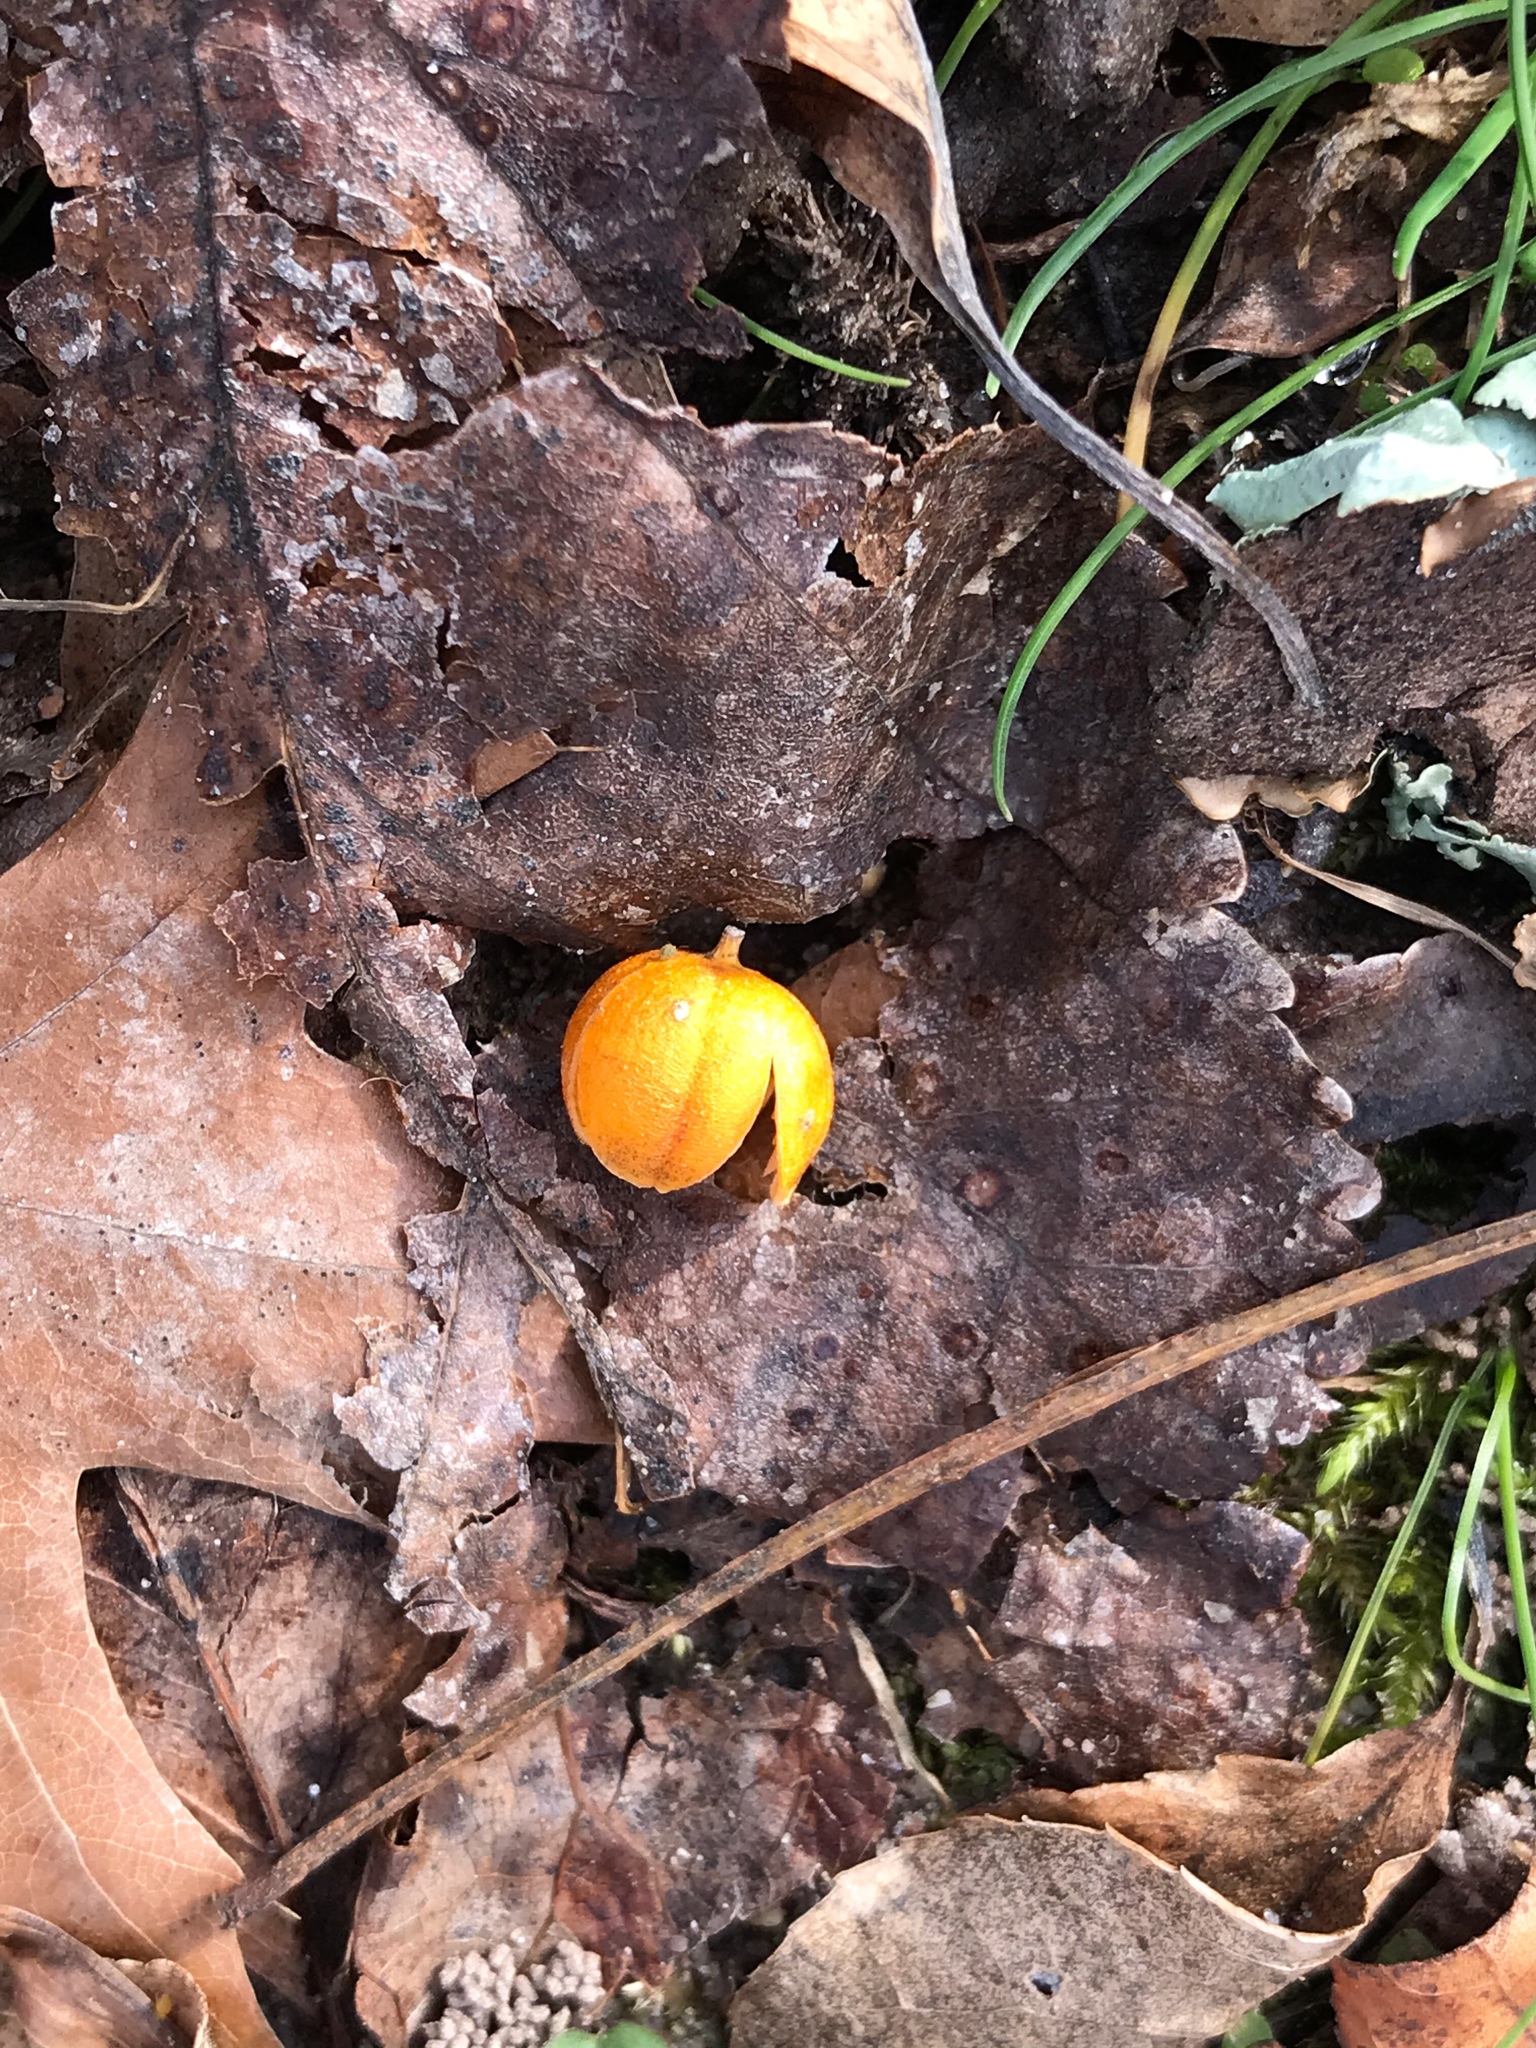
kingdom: Plantae
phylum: Tracheophyta
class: Magnoliopsida
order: Celastrales
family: Celastraceae
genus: Celastrus
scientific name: Celastrus orbiculatus
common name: Oriental bittersweet
